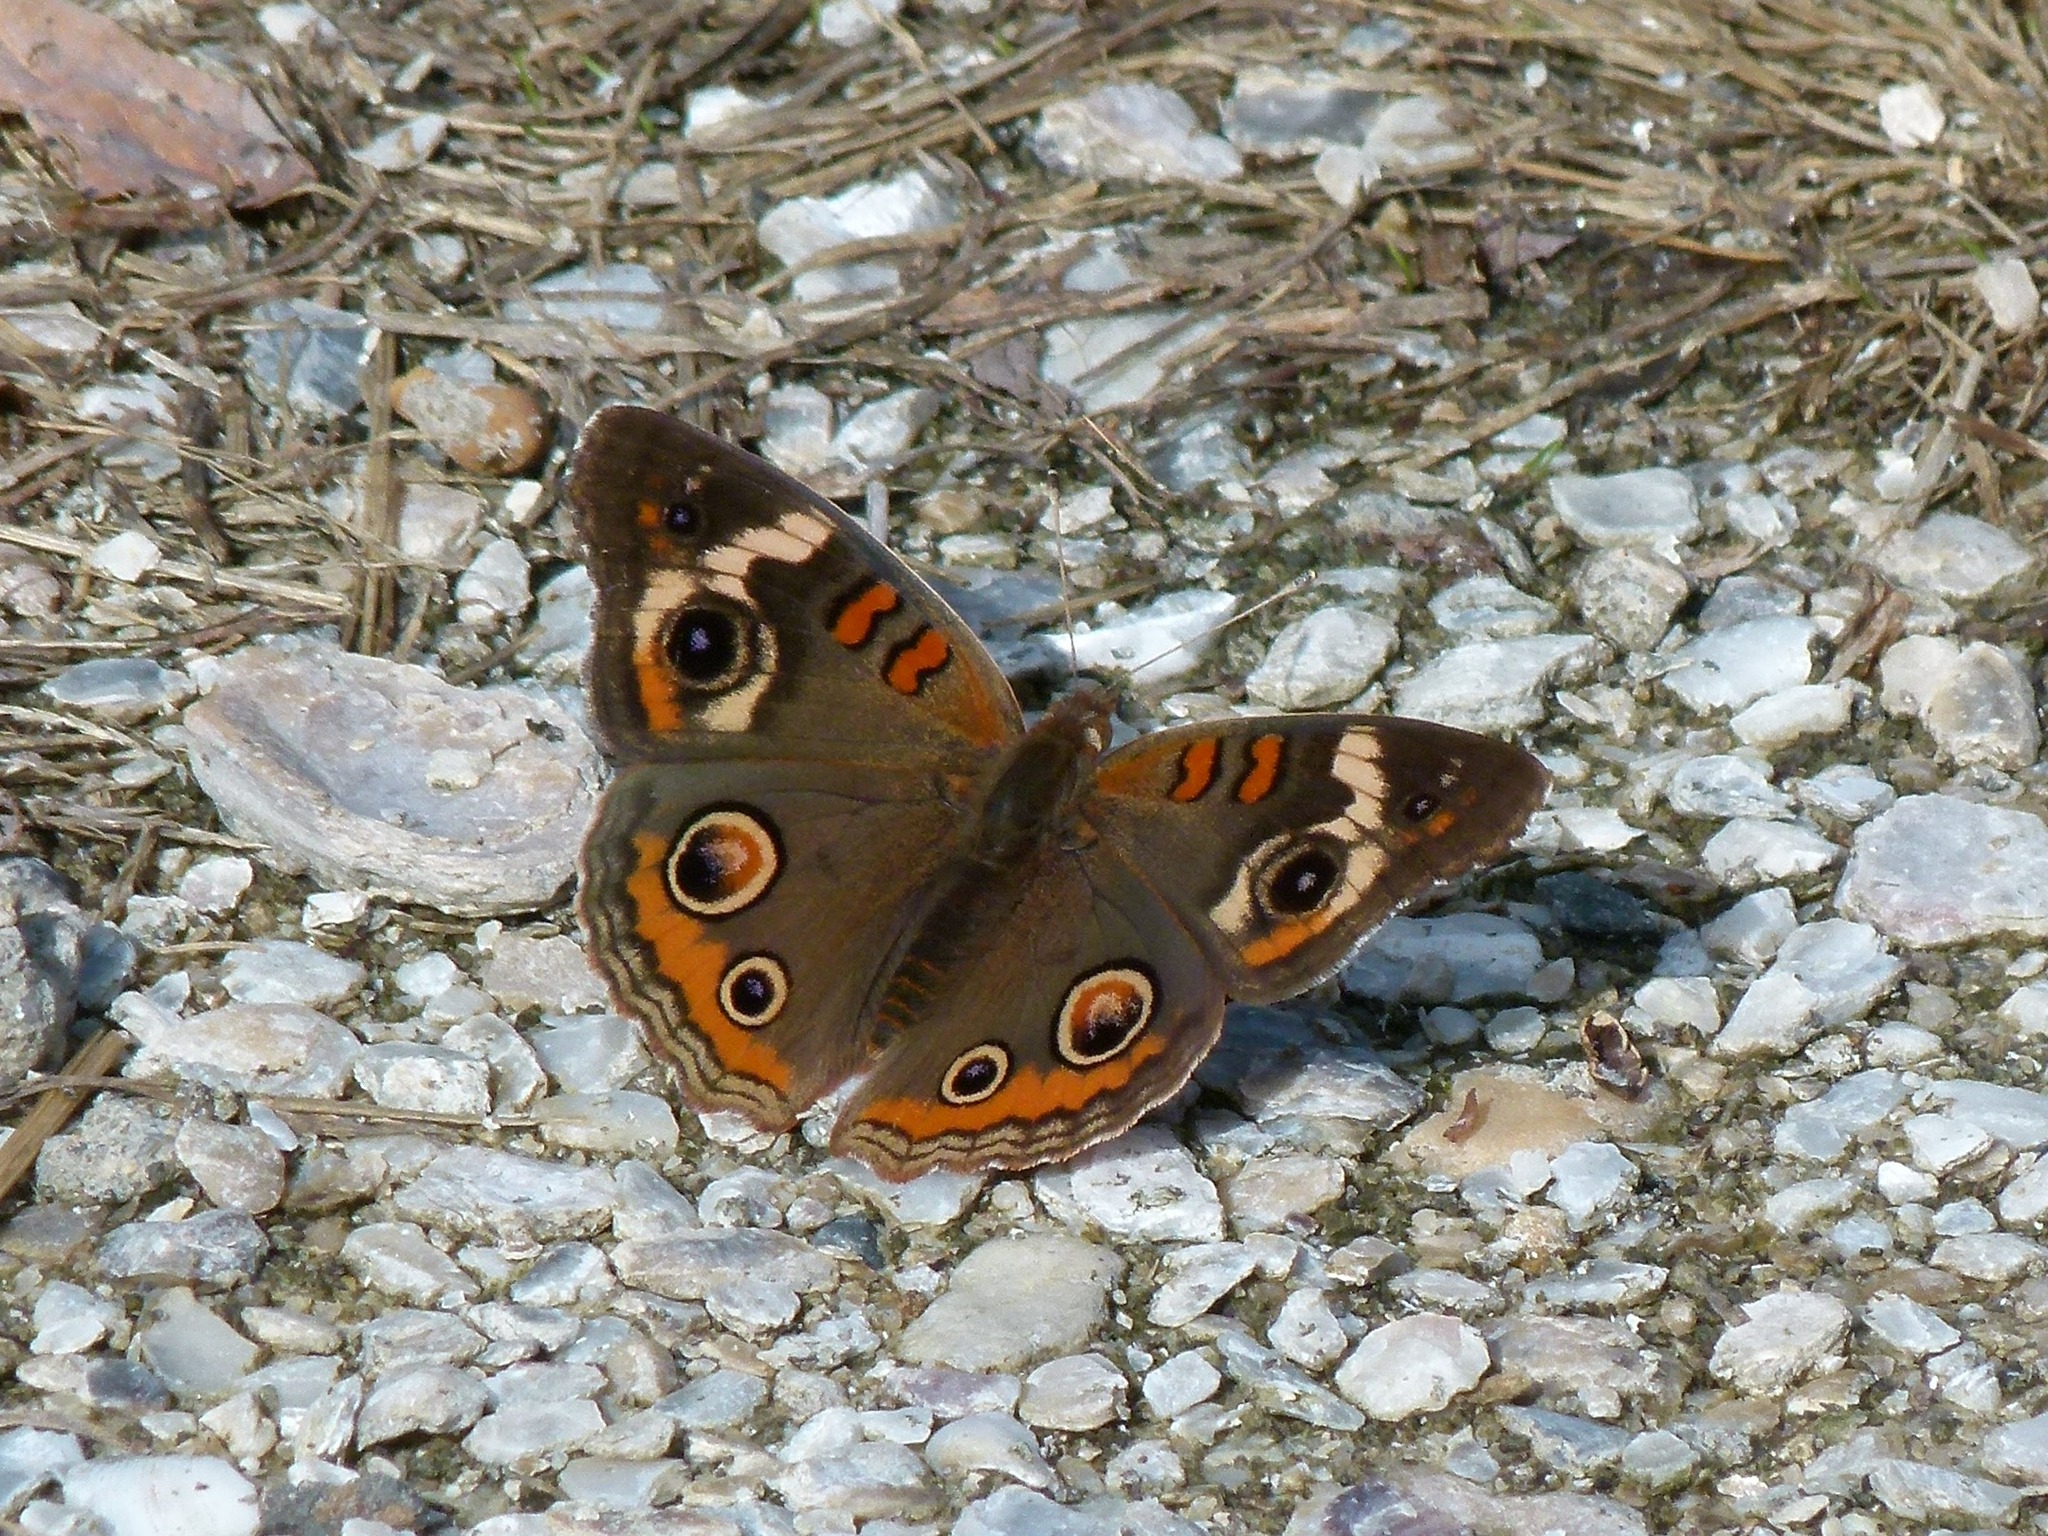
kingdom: Animalia
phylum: Arthropoda
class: Insecta
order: Lepidoptera
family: Nymphalidae
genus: Junonia
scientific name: Junonia coenia
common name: Common buckeye
